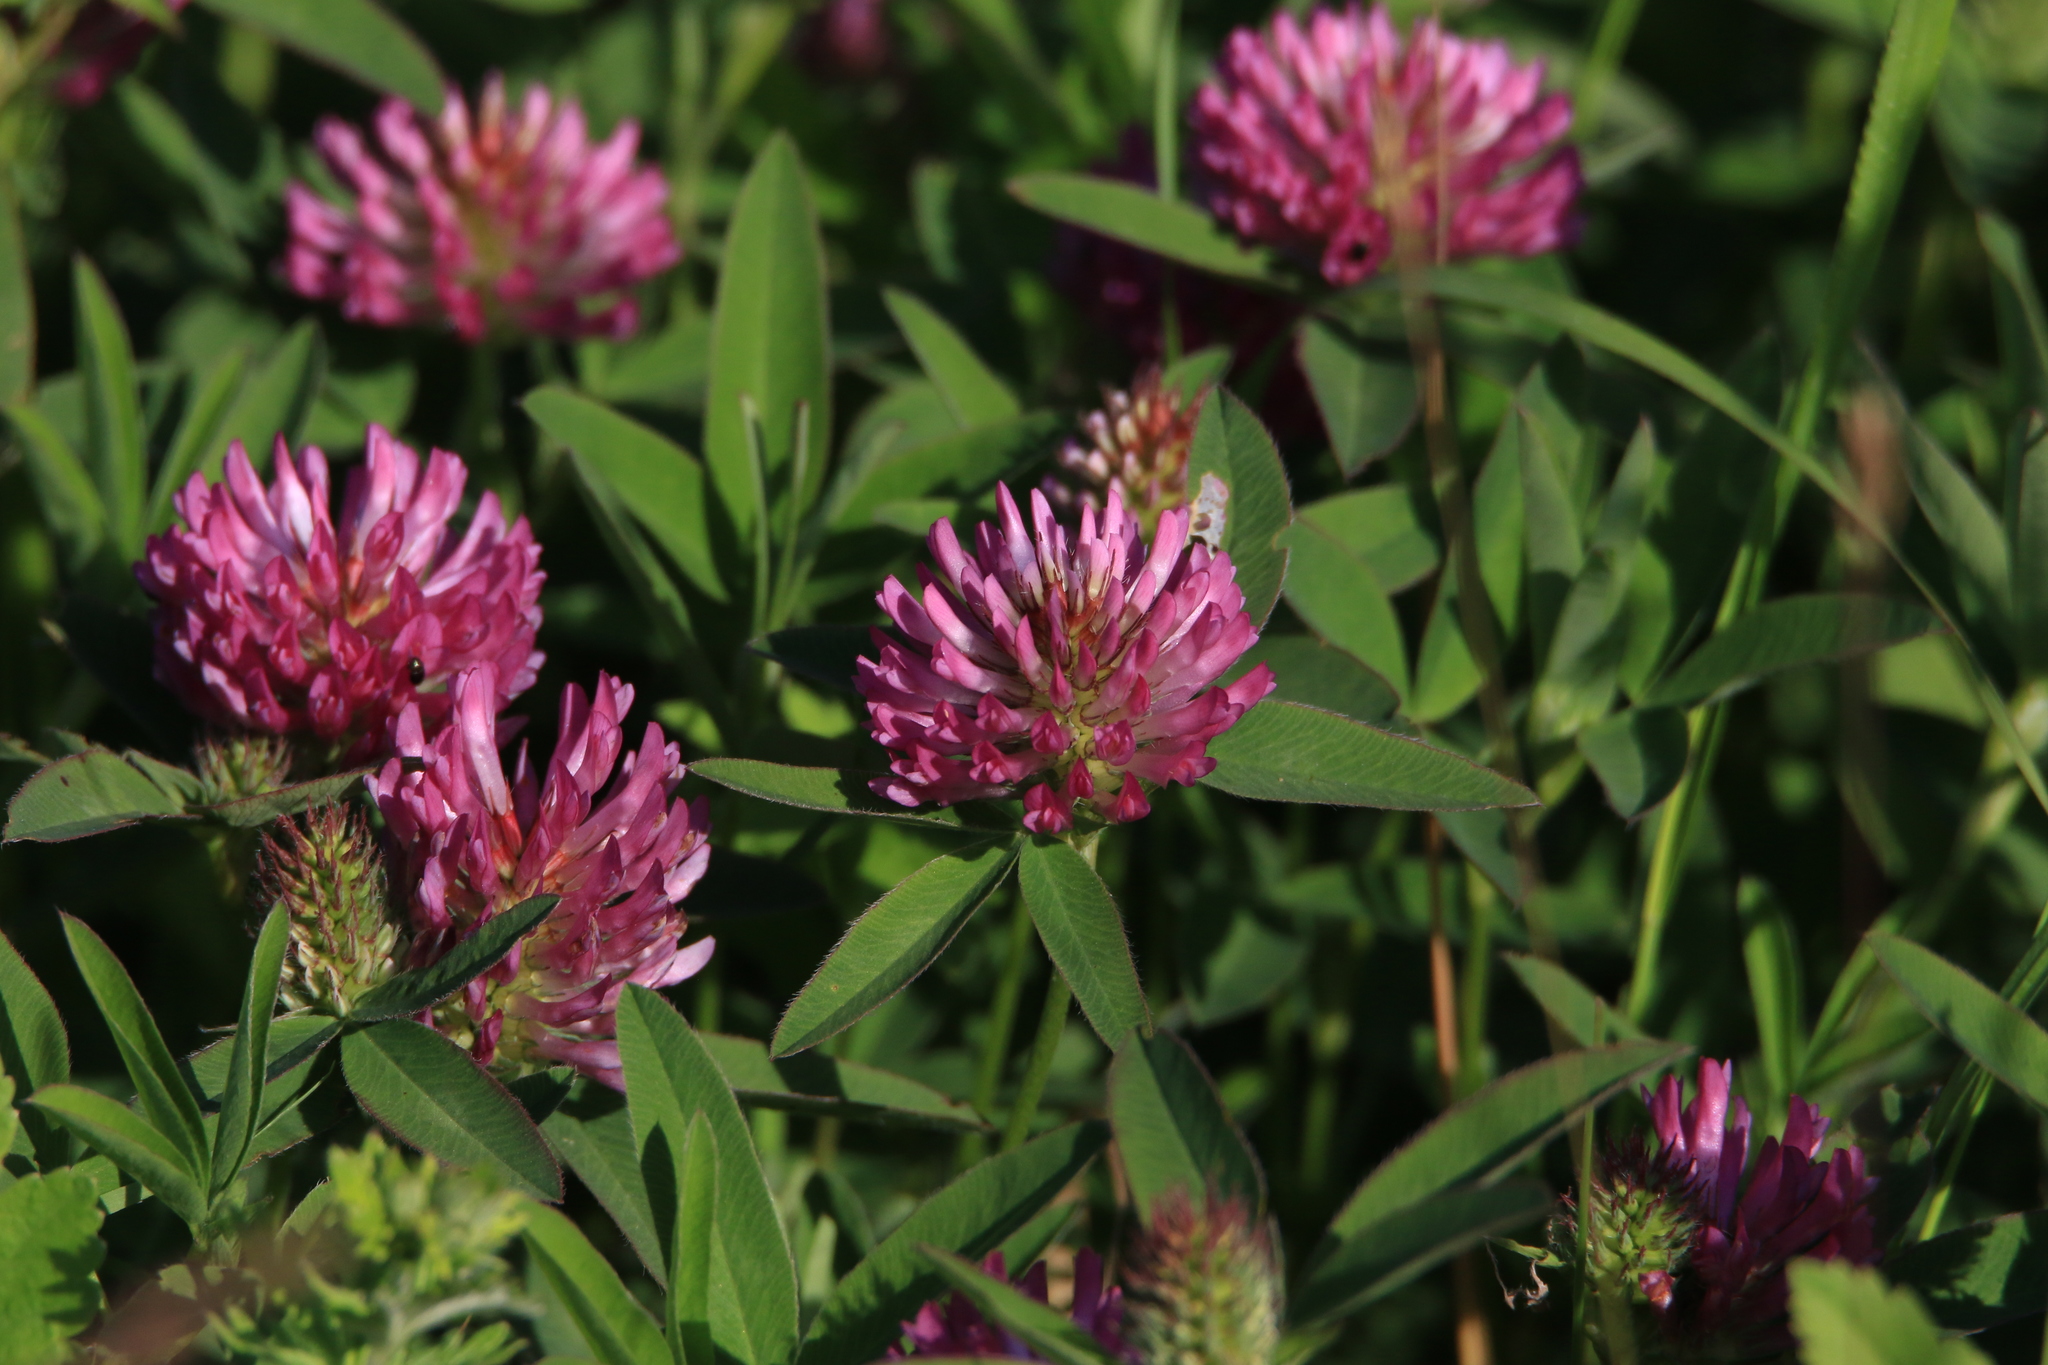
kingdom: Plantae
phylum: Tracheophyta
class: Magnoliopsida
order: Fabales
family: Fabaceae
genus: Trifolium
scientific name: Trifolium medium
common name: Zigzag clover
